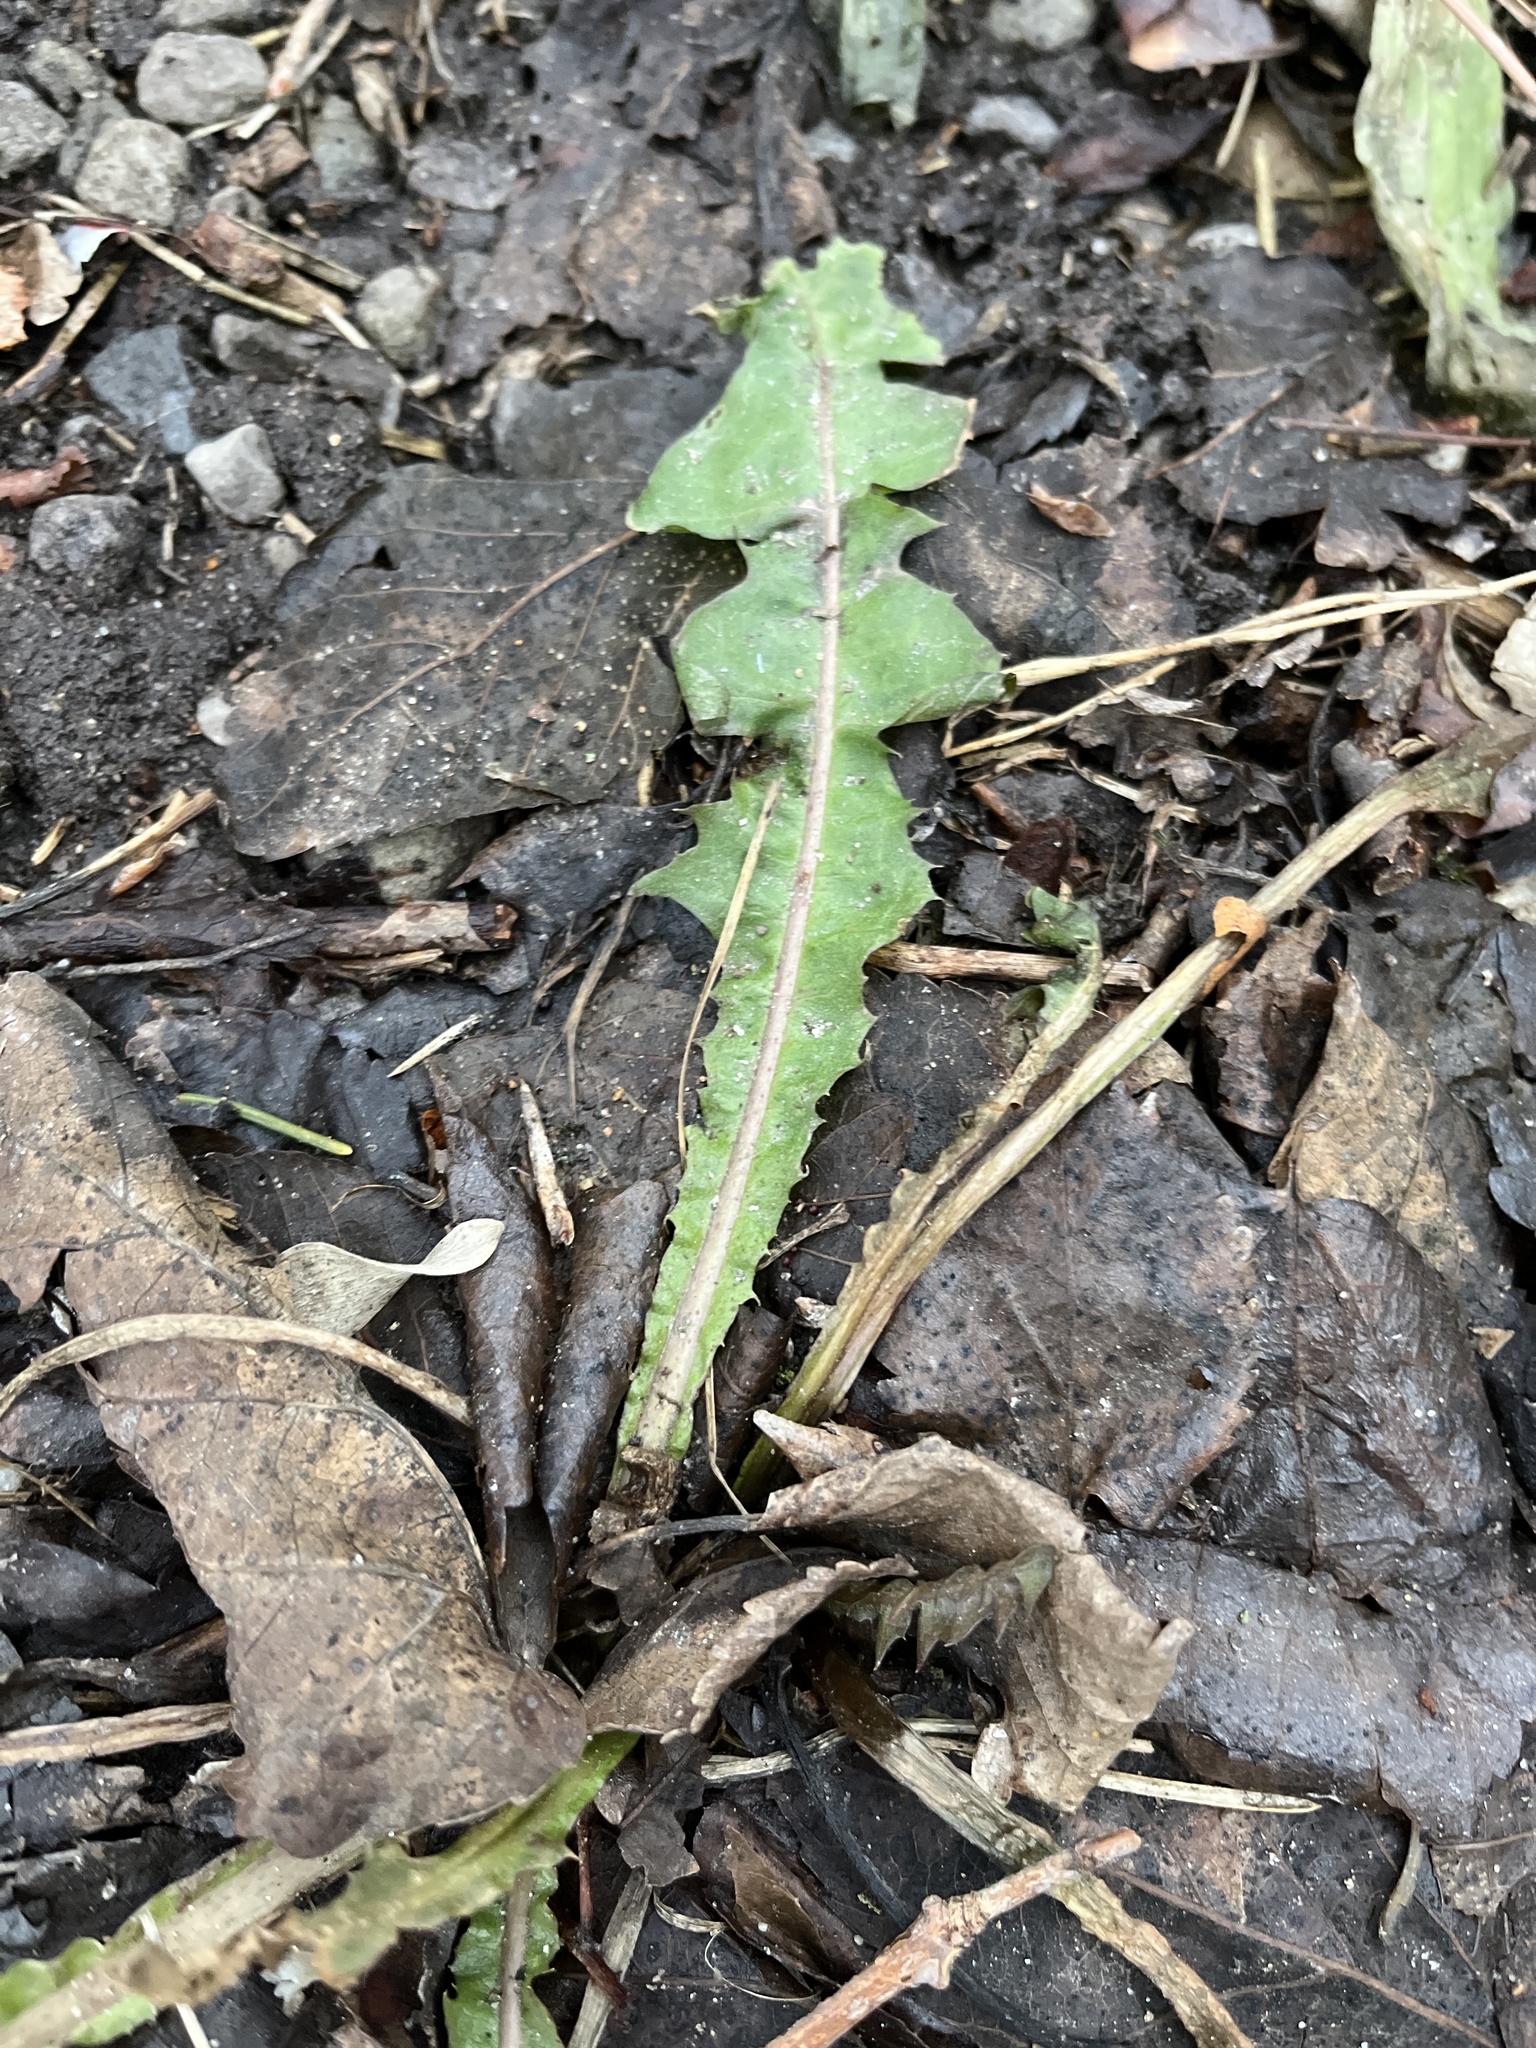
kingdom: Plantae
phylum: Tracheophyta
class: Magnoliopsida
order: Asterales
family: Asteraceae
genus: Taraxacum
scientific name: Taraxacum officinale
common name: Common dandelion
